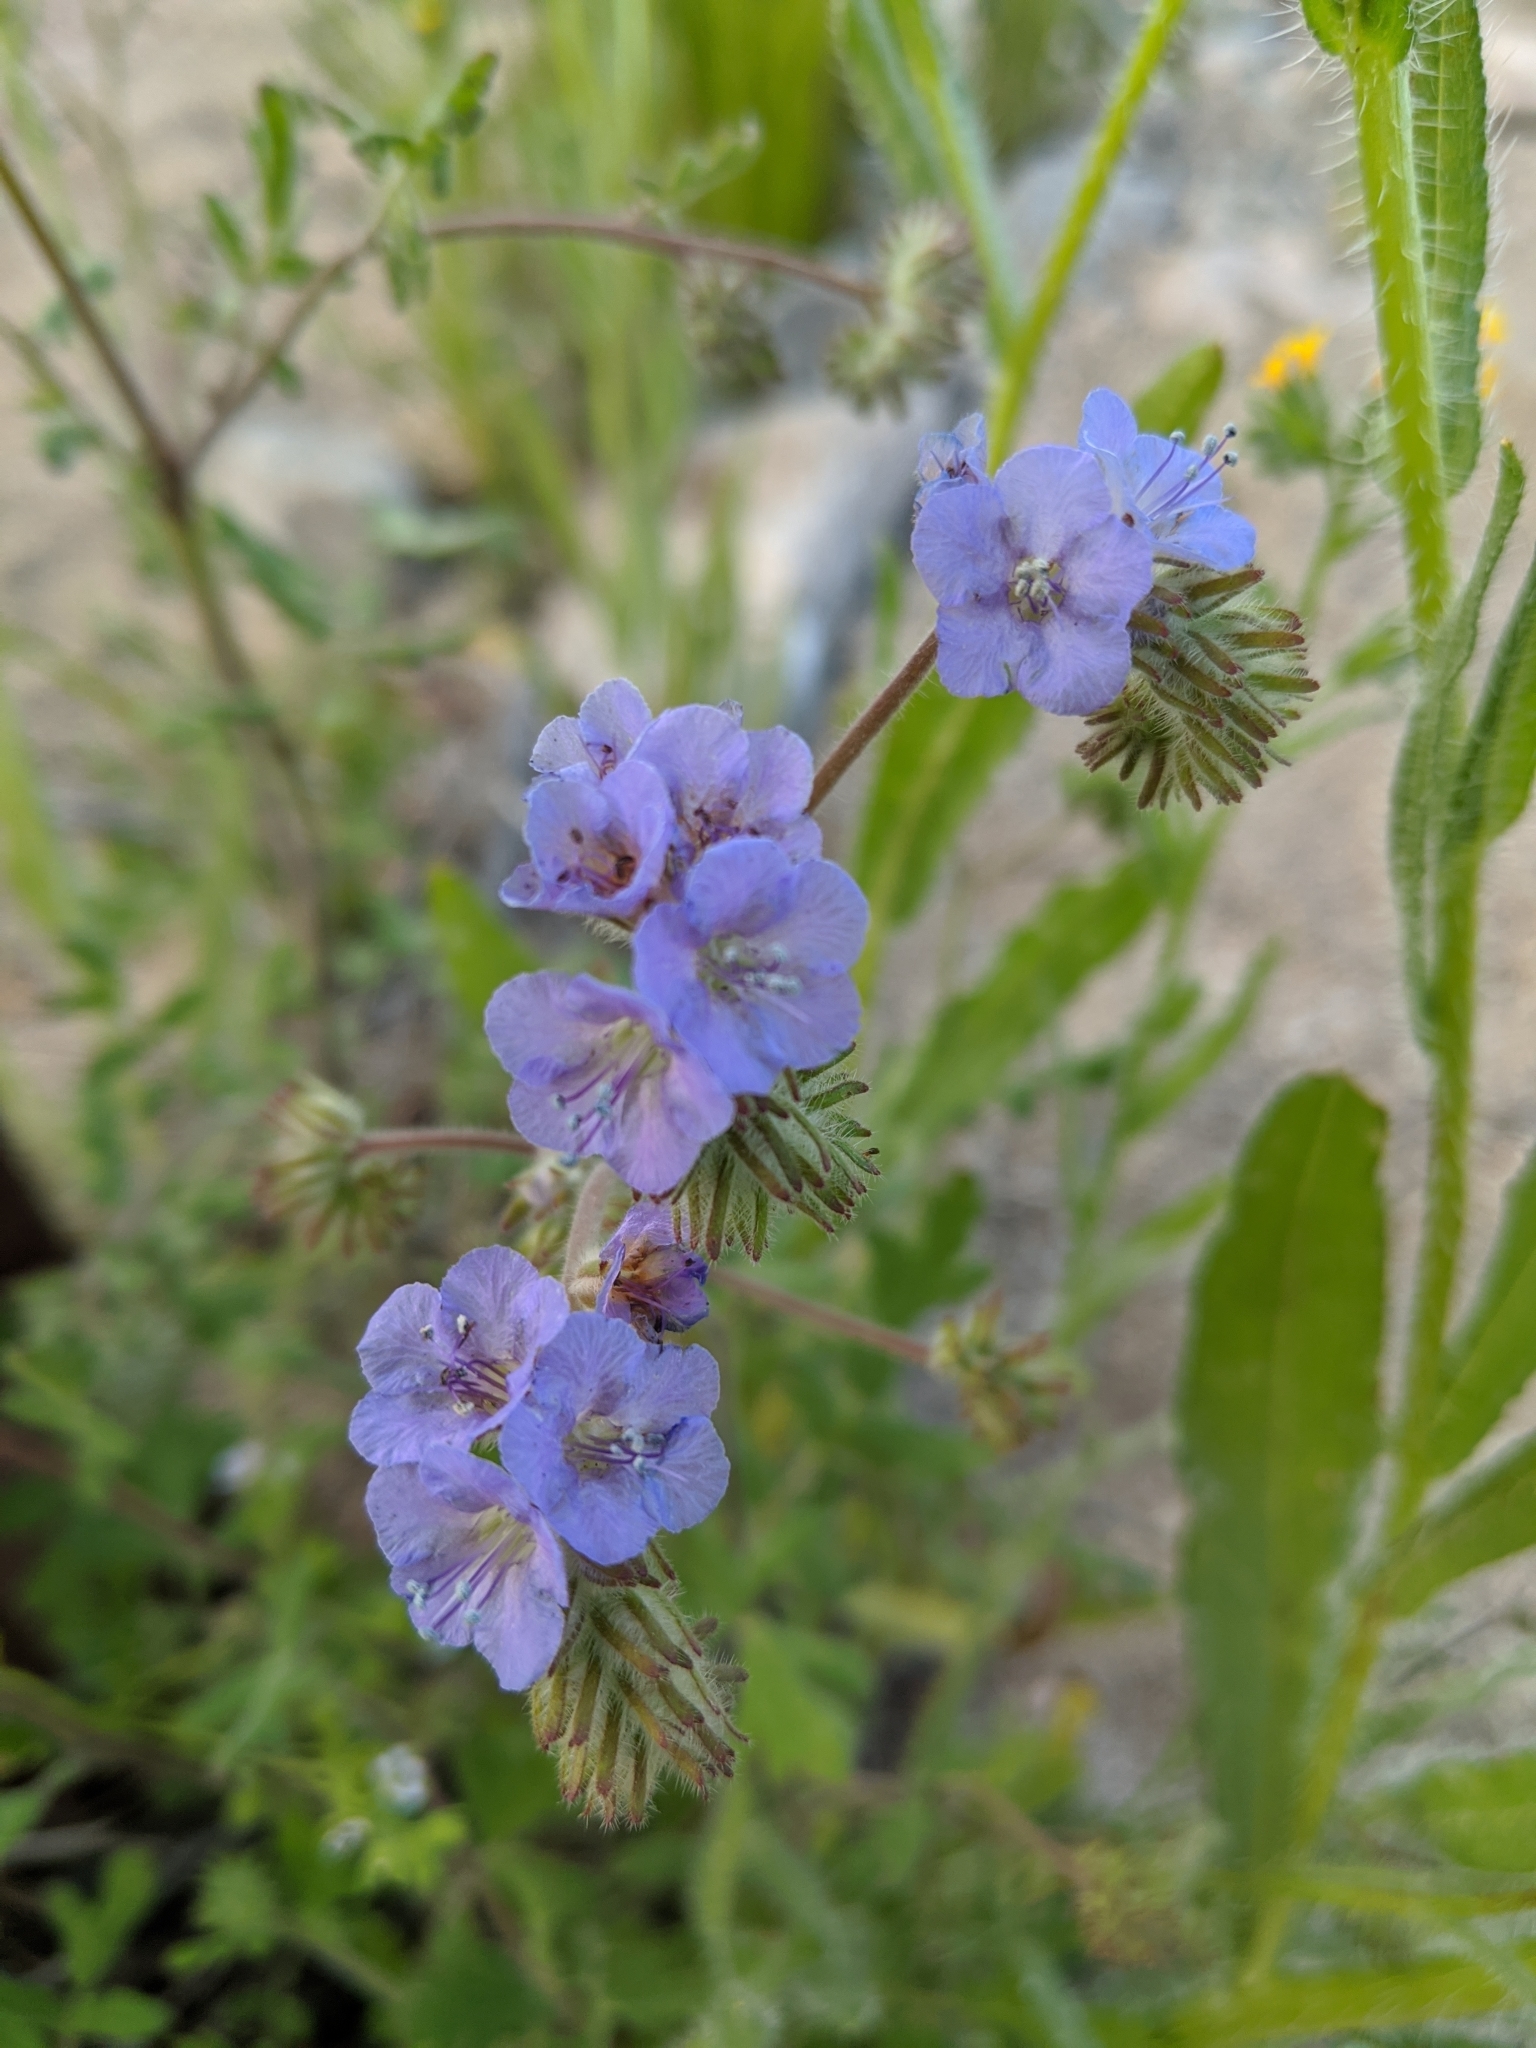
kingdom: Plantae
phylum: Tracheophyta
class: Magnoliopsida
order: Boraginales
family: Hydrophyllaceae
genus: Phacelia
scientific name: Phacelia distans
